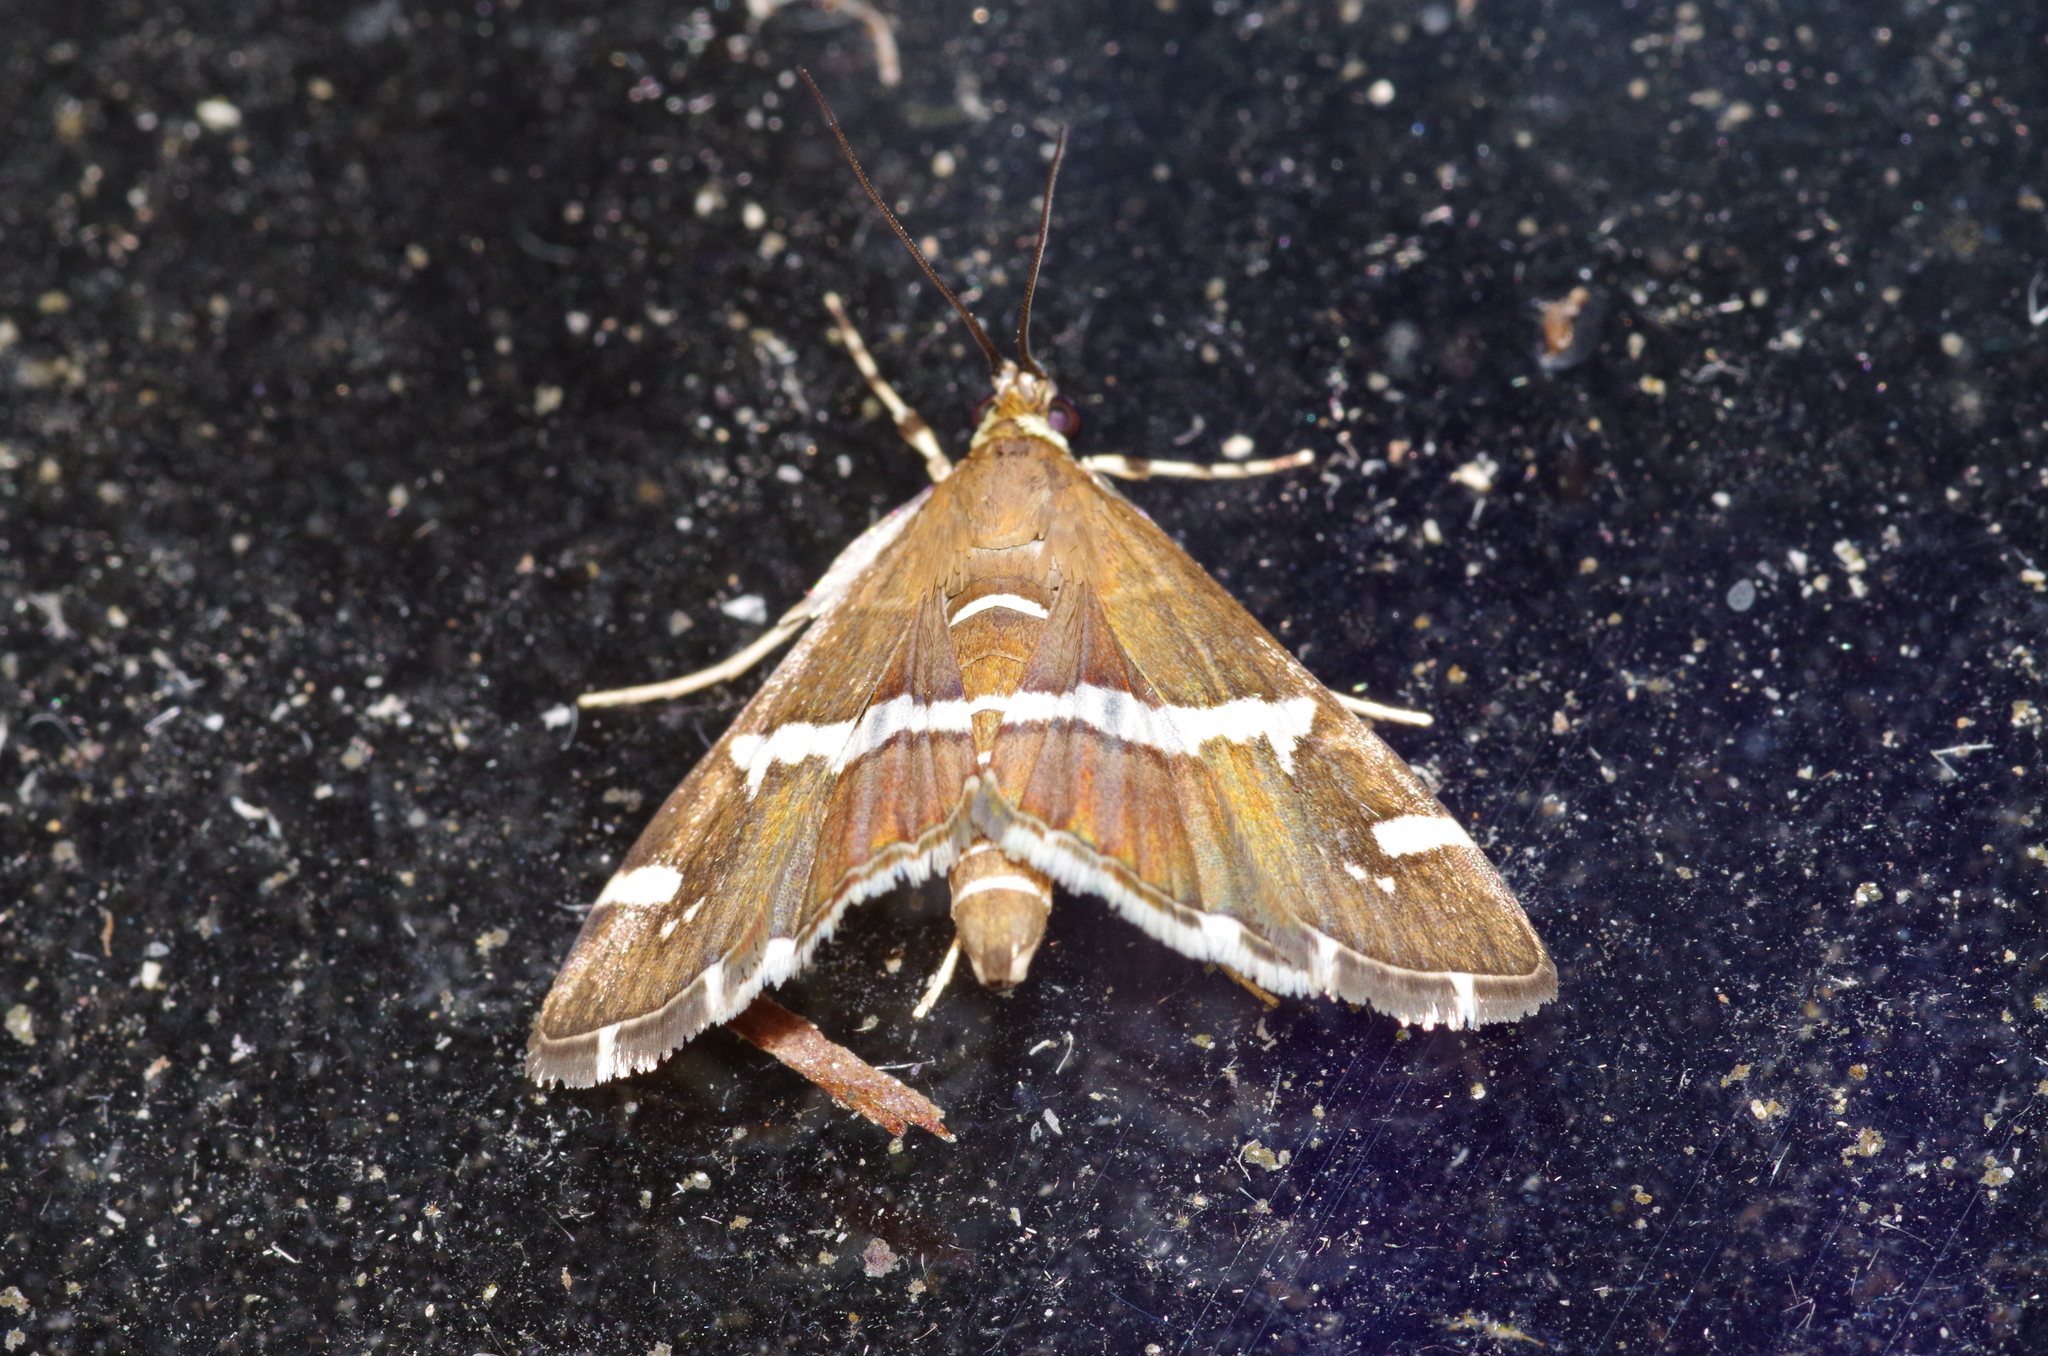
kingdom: Animalia
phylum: Arthropoda
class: Insecta
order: Lepidoptera
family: Crambidae
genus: Spoladea
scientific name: Spoladea recurvalis
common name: Beet webworm moth
